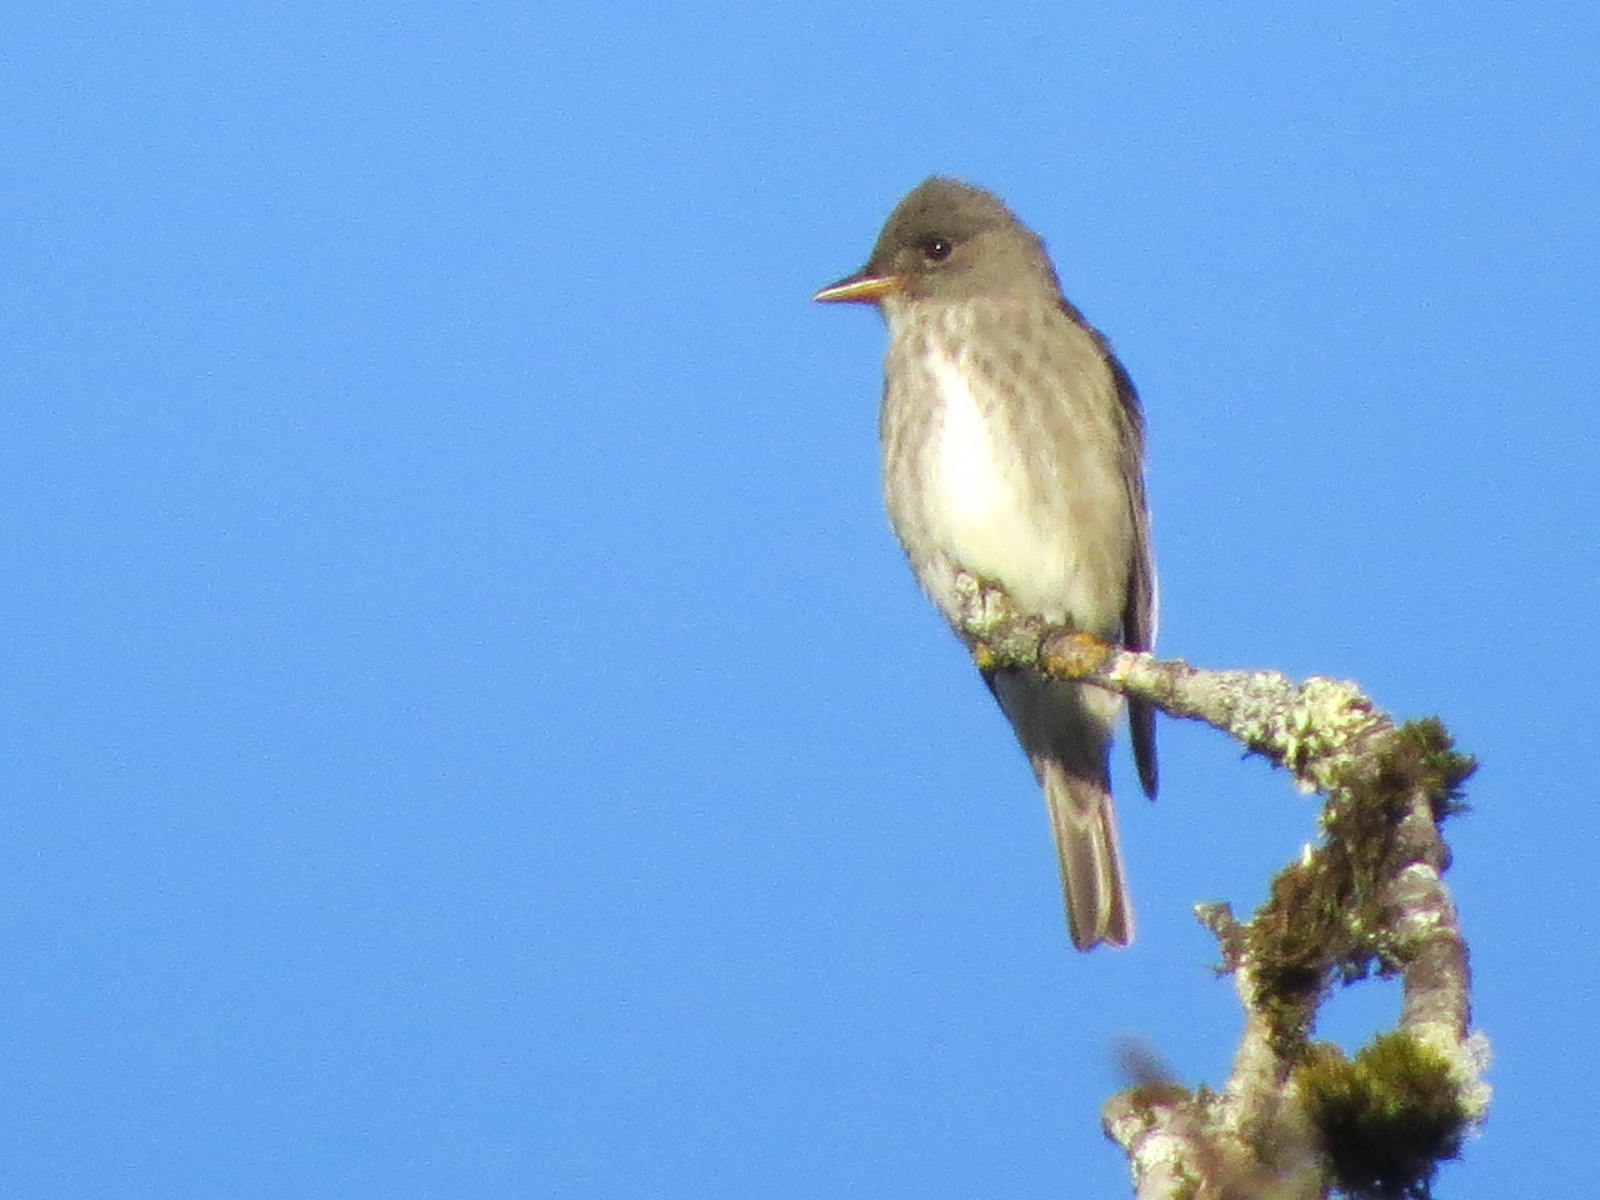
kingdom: Animalia
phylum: Chordata
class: Aves
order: Passeriformes
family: Tyrannidae
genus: Contopus
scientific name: Contopus cooperi
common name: Olive-sided flycatcher
